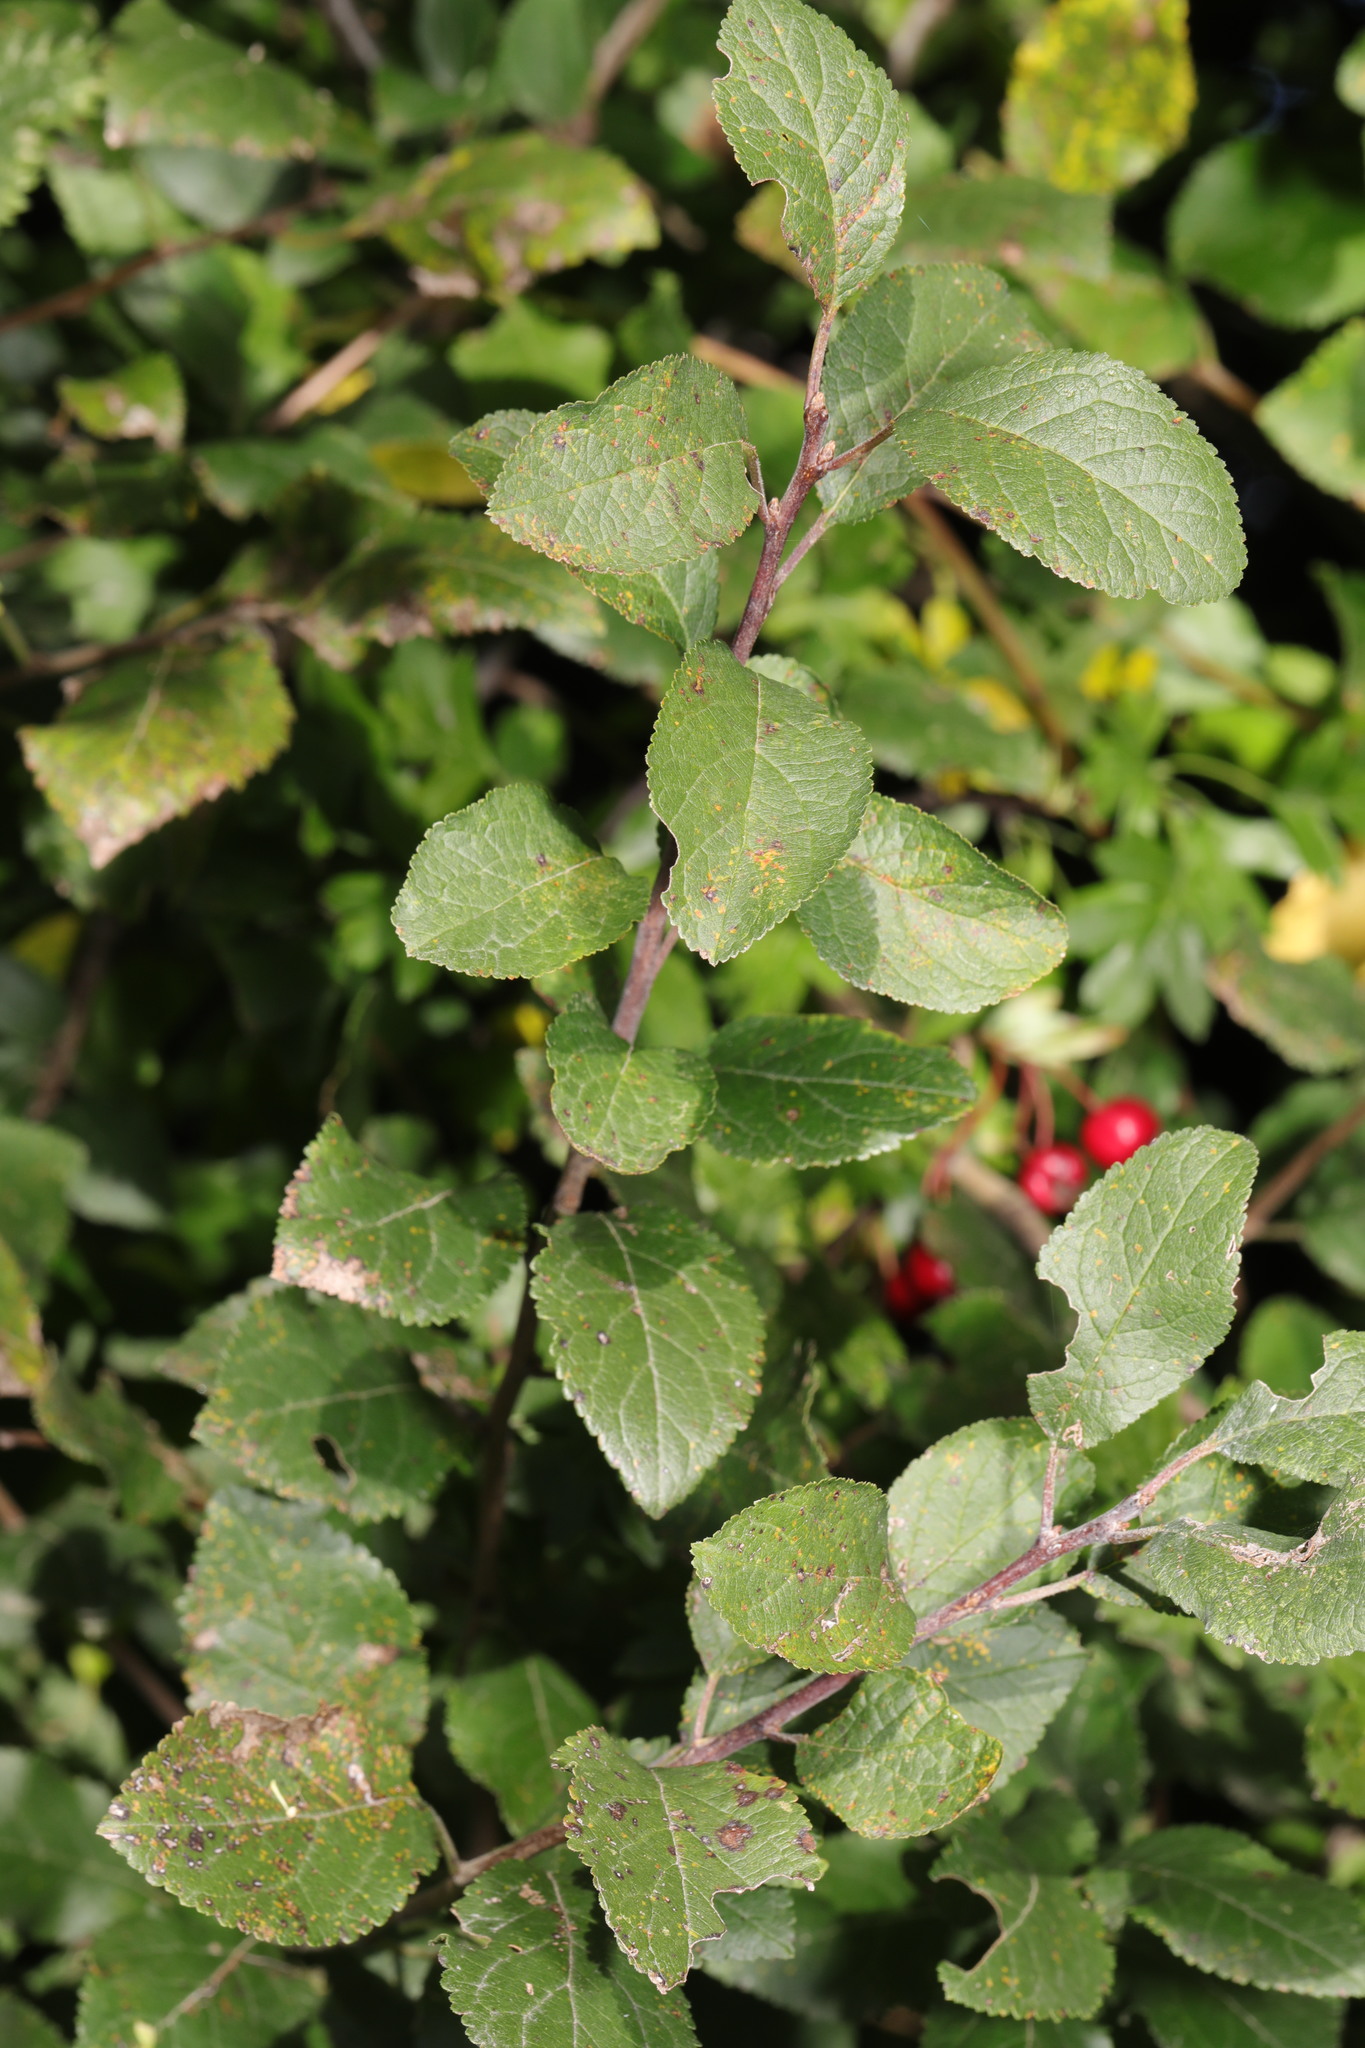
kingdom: Plantae
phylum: Tracheophyta
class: Magnoliopsida
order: Rosales
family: Rosaceae
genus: Prunus
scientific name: Prunus spinosa
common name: Blackthorn
